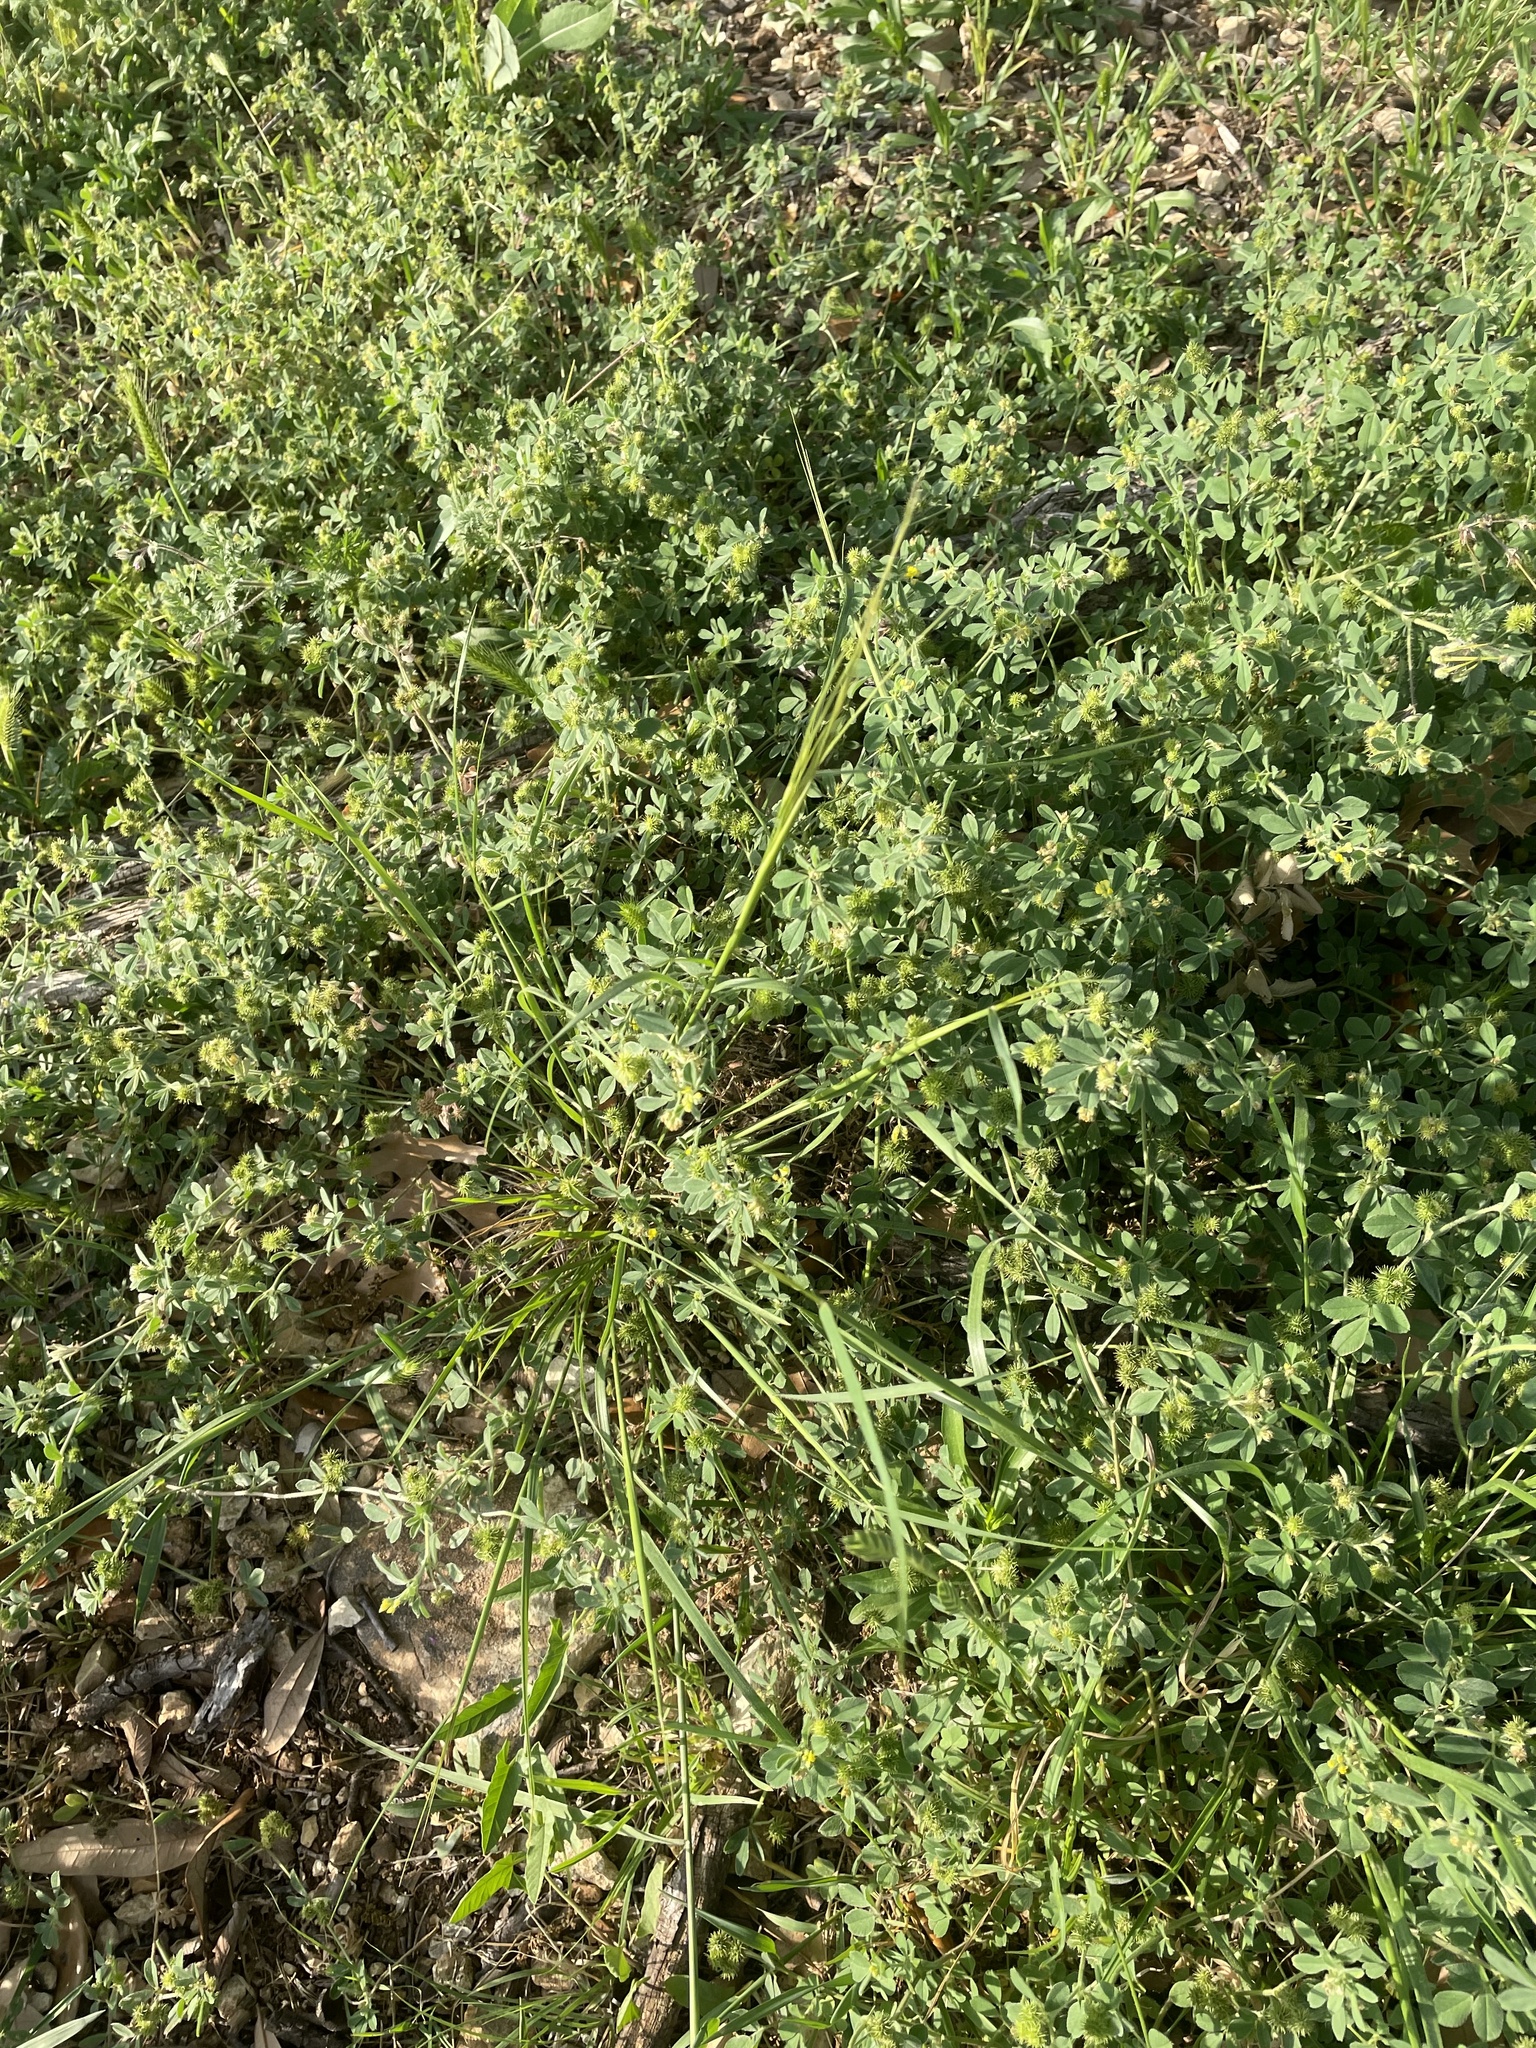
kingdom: Plantae
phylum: Tracheophyta
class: Liliopsida
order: Poales
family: Poaceae
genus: Nassella
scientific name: Nassella leucotricha
